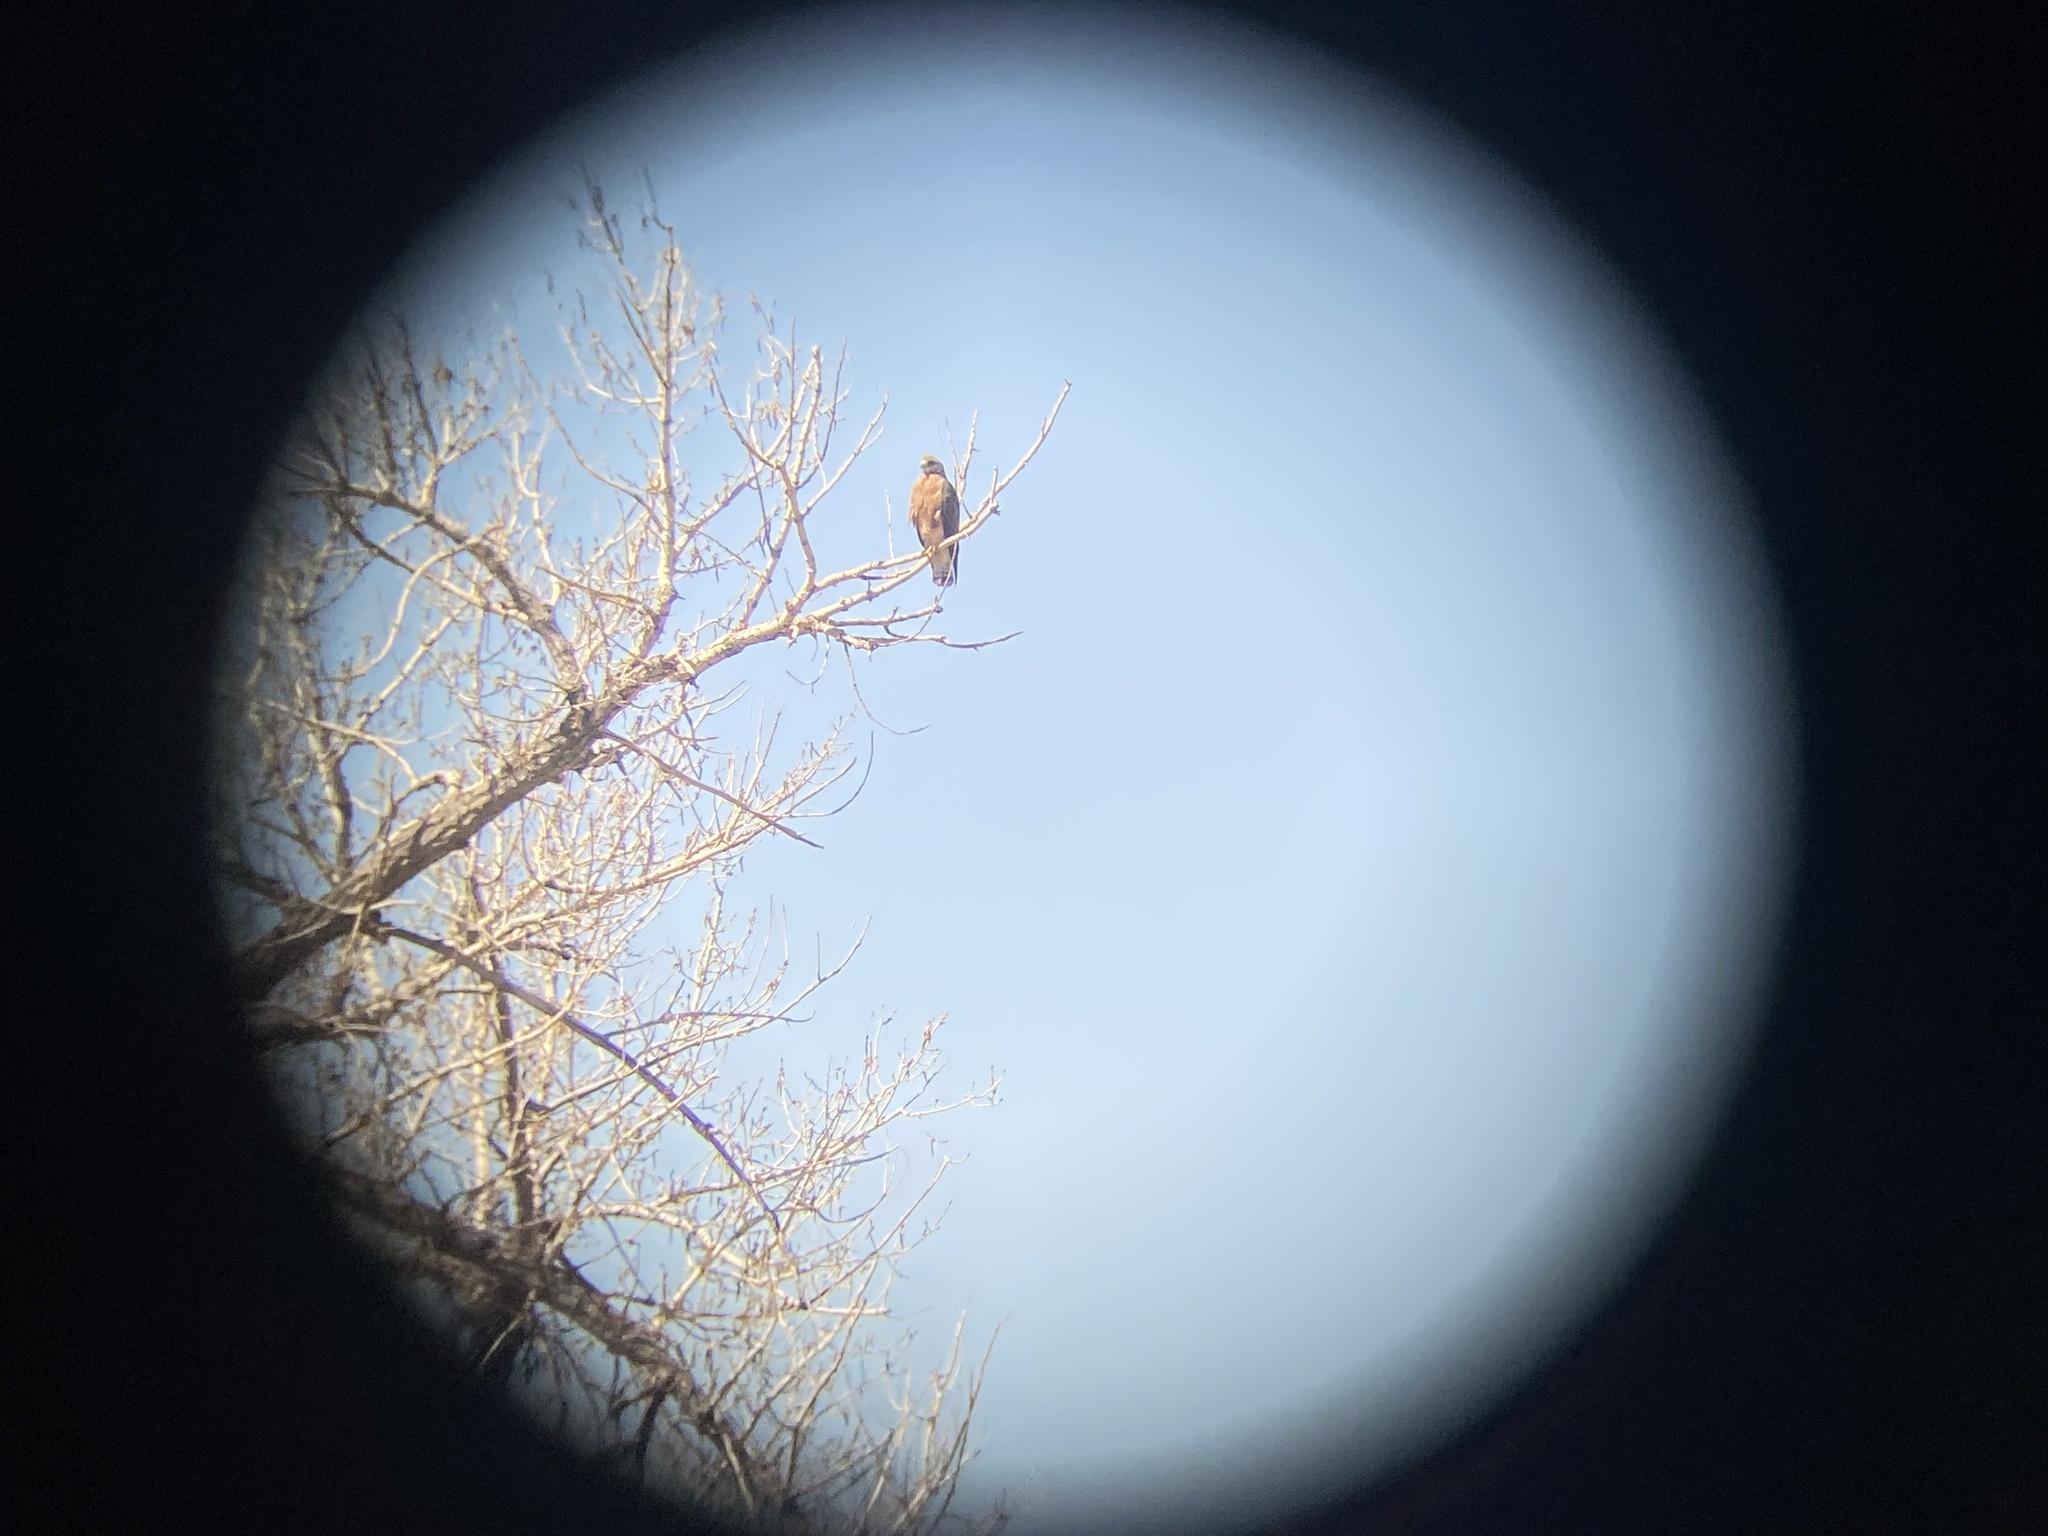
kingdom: Animalia
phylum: Chordata
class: Aves
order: Accipitriformes
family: Accipitridae
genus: Buteo
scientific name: Buteo swainsoni
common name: Swainson's hawk
